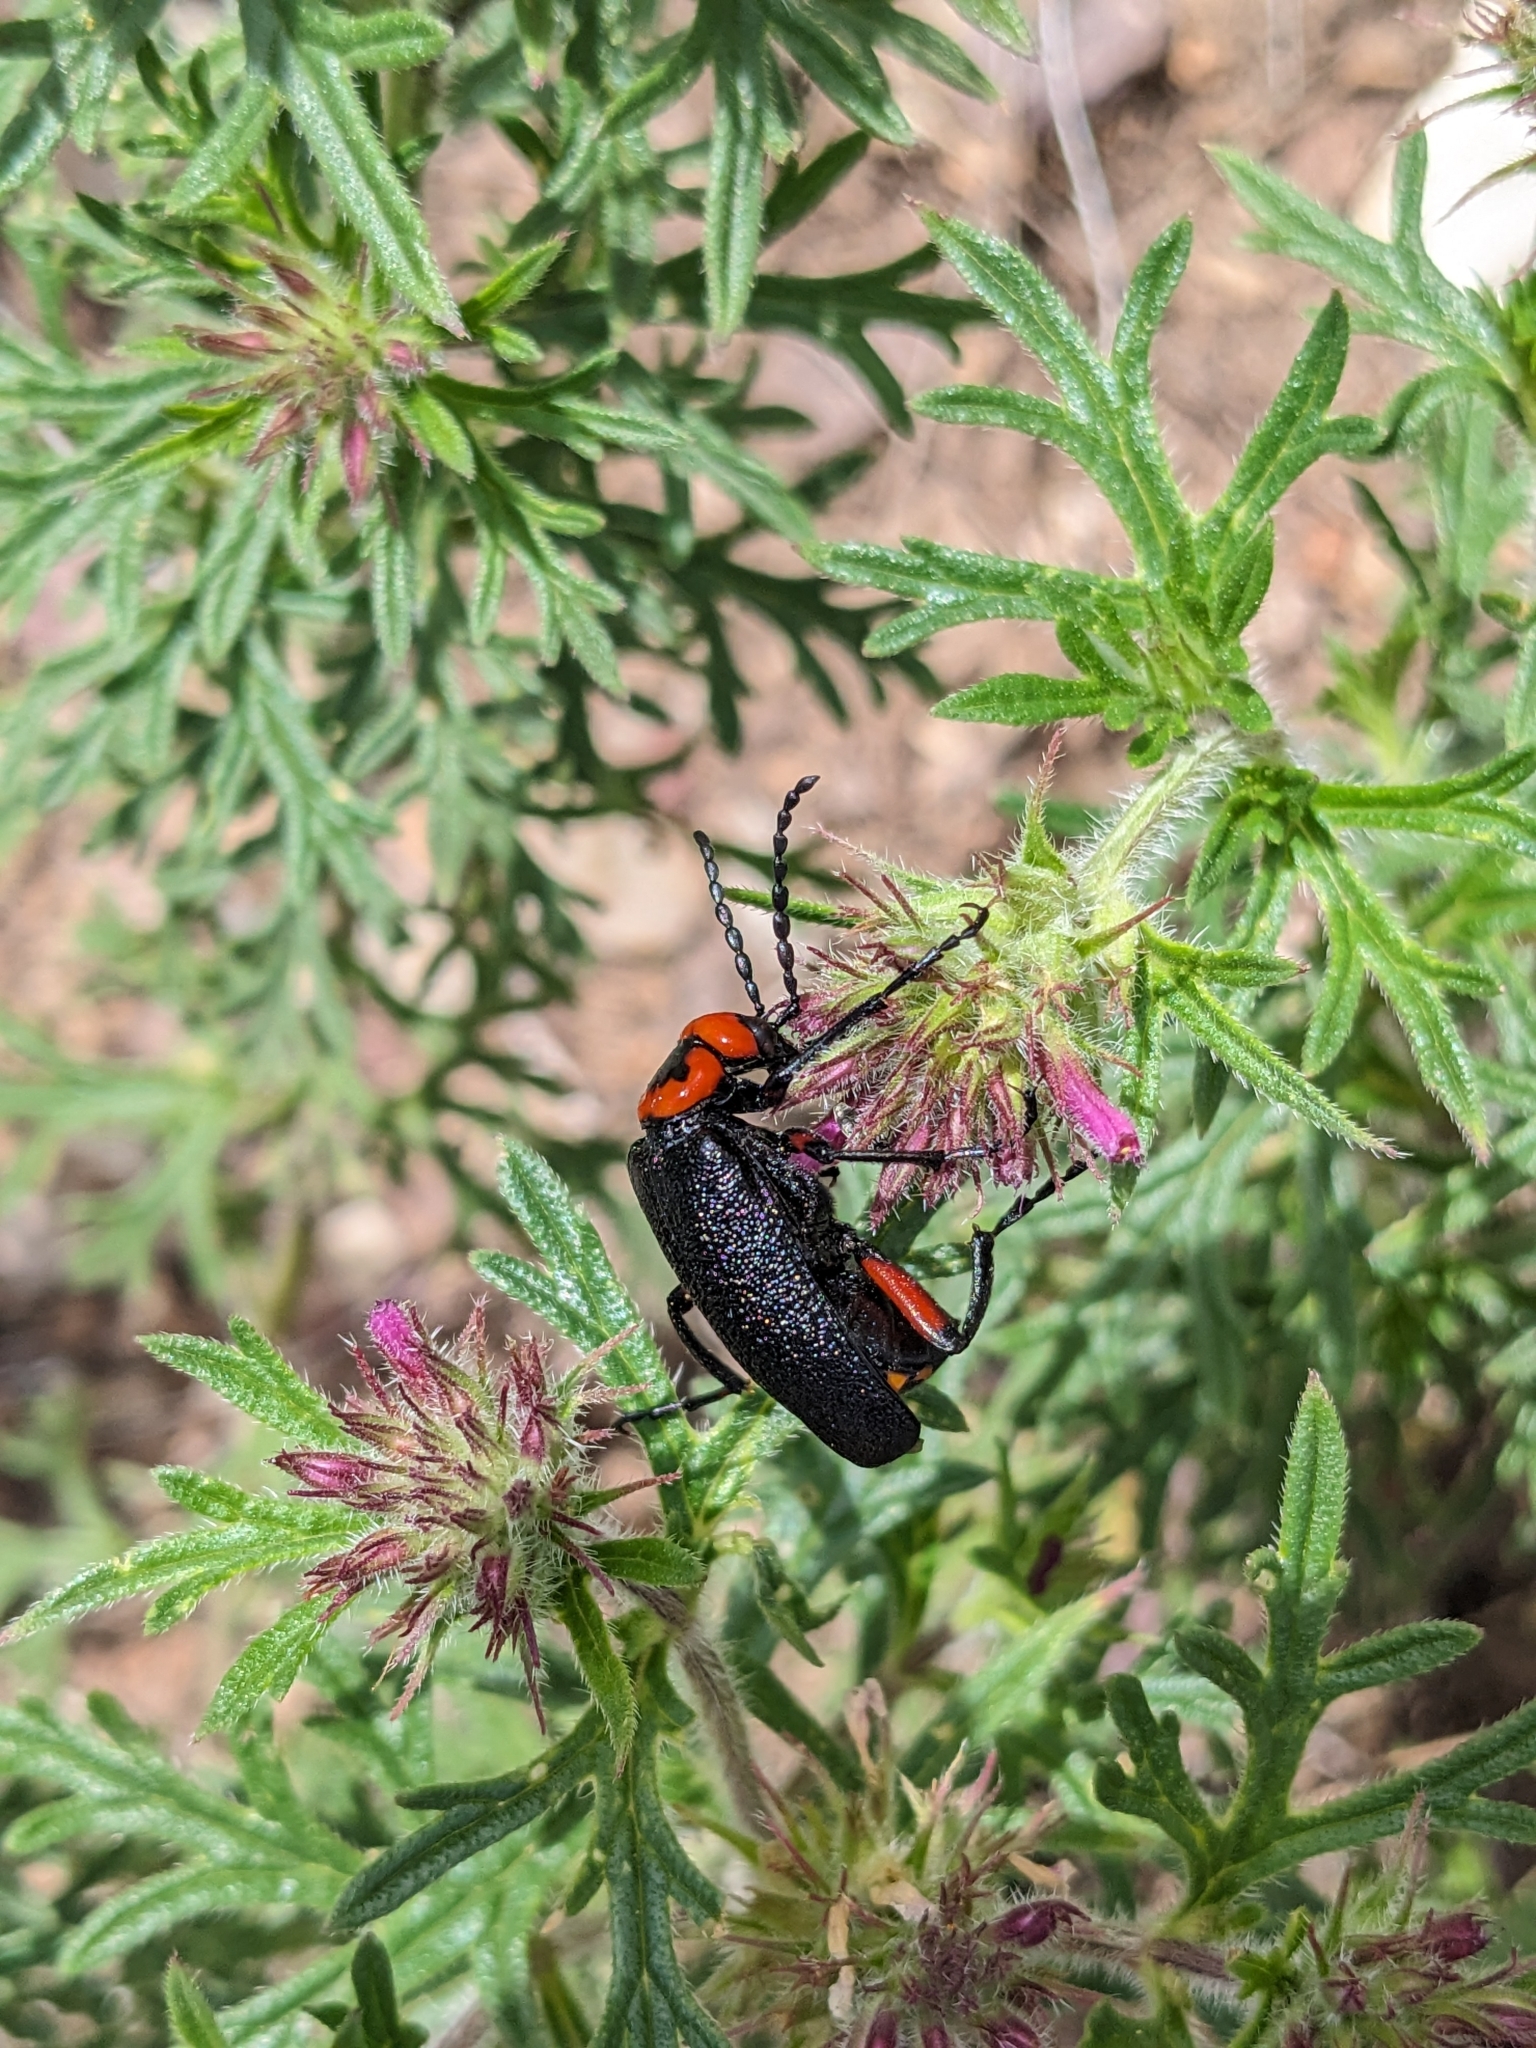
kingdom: Animalia
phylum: Arthropoda
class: Insecta
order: Coleoptera
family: Meloidae
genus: Lytta
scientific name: Lytta magister
